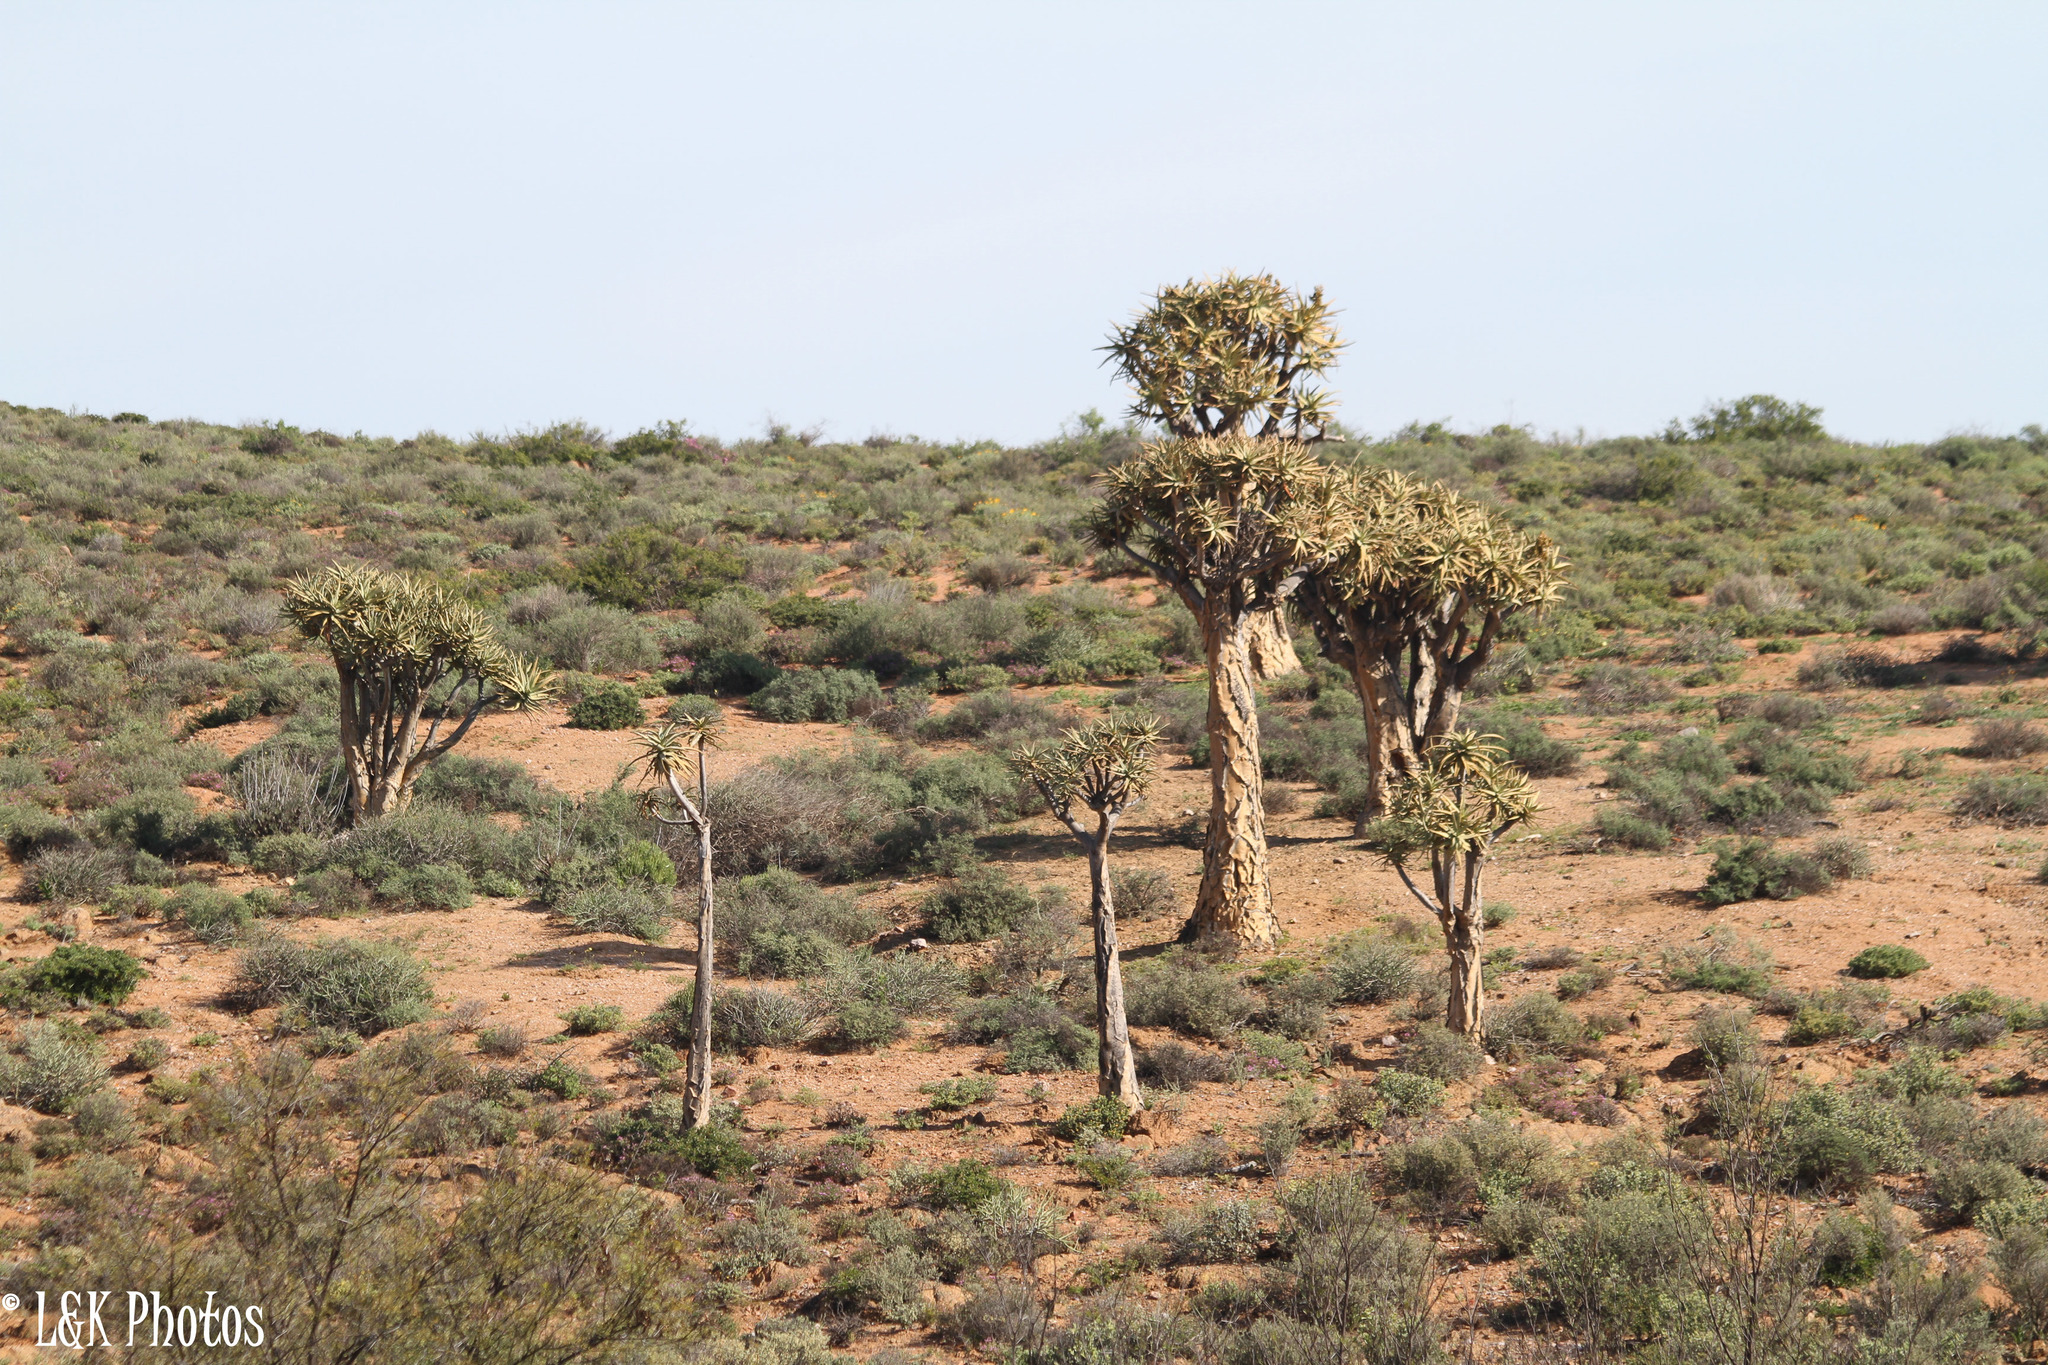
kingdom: Plantae
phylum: Tracheophyta
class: Liliopsida
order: Asparagales
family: Asphodelaceae
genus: Aloidendron
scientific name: Aloidendron dichotomum
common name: Quiver tree
